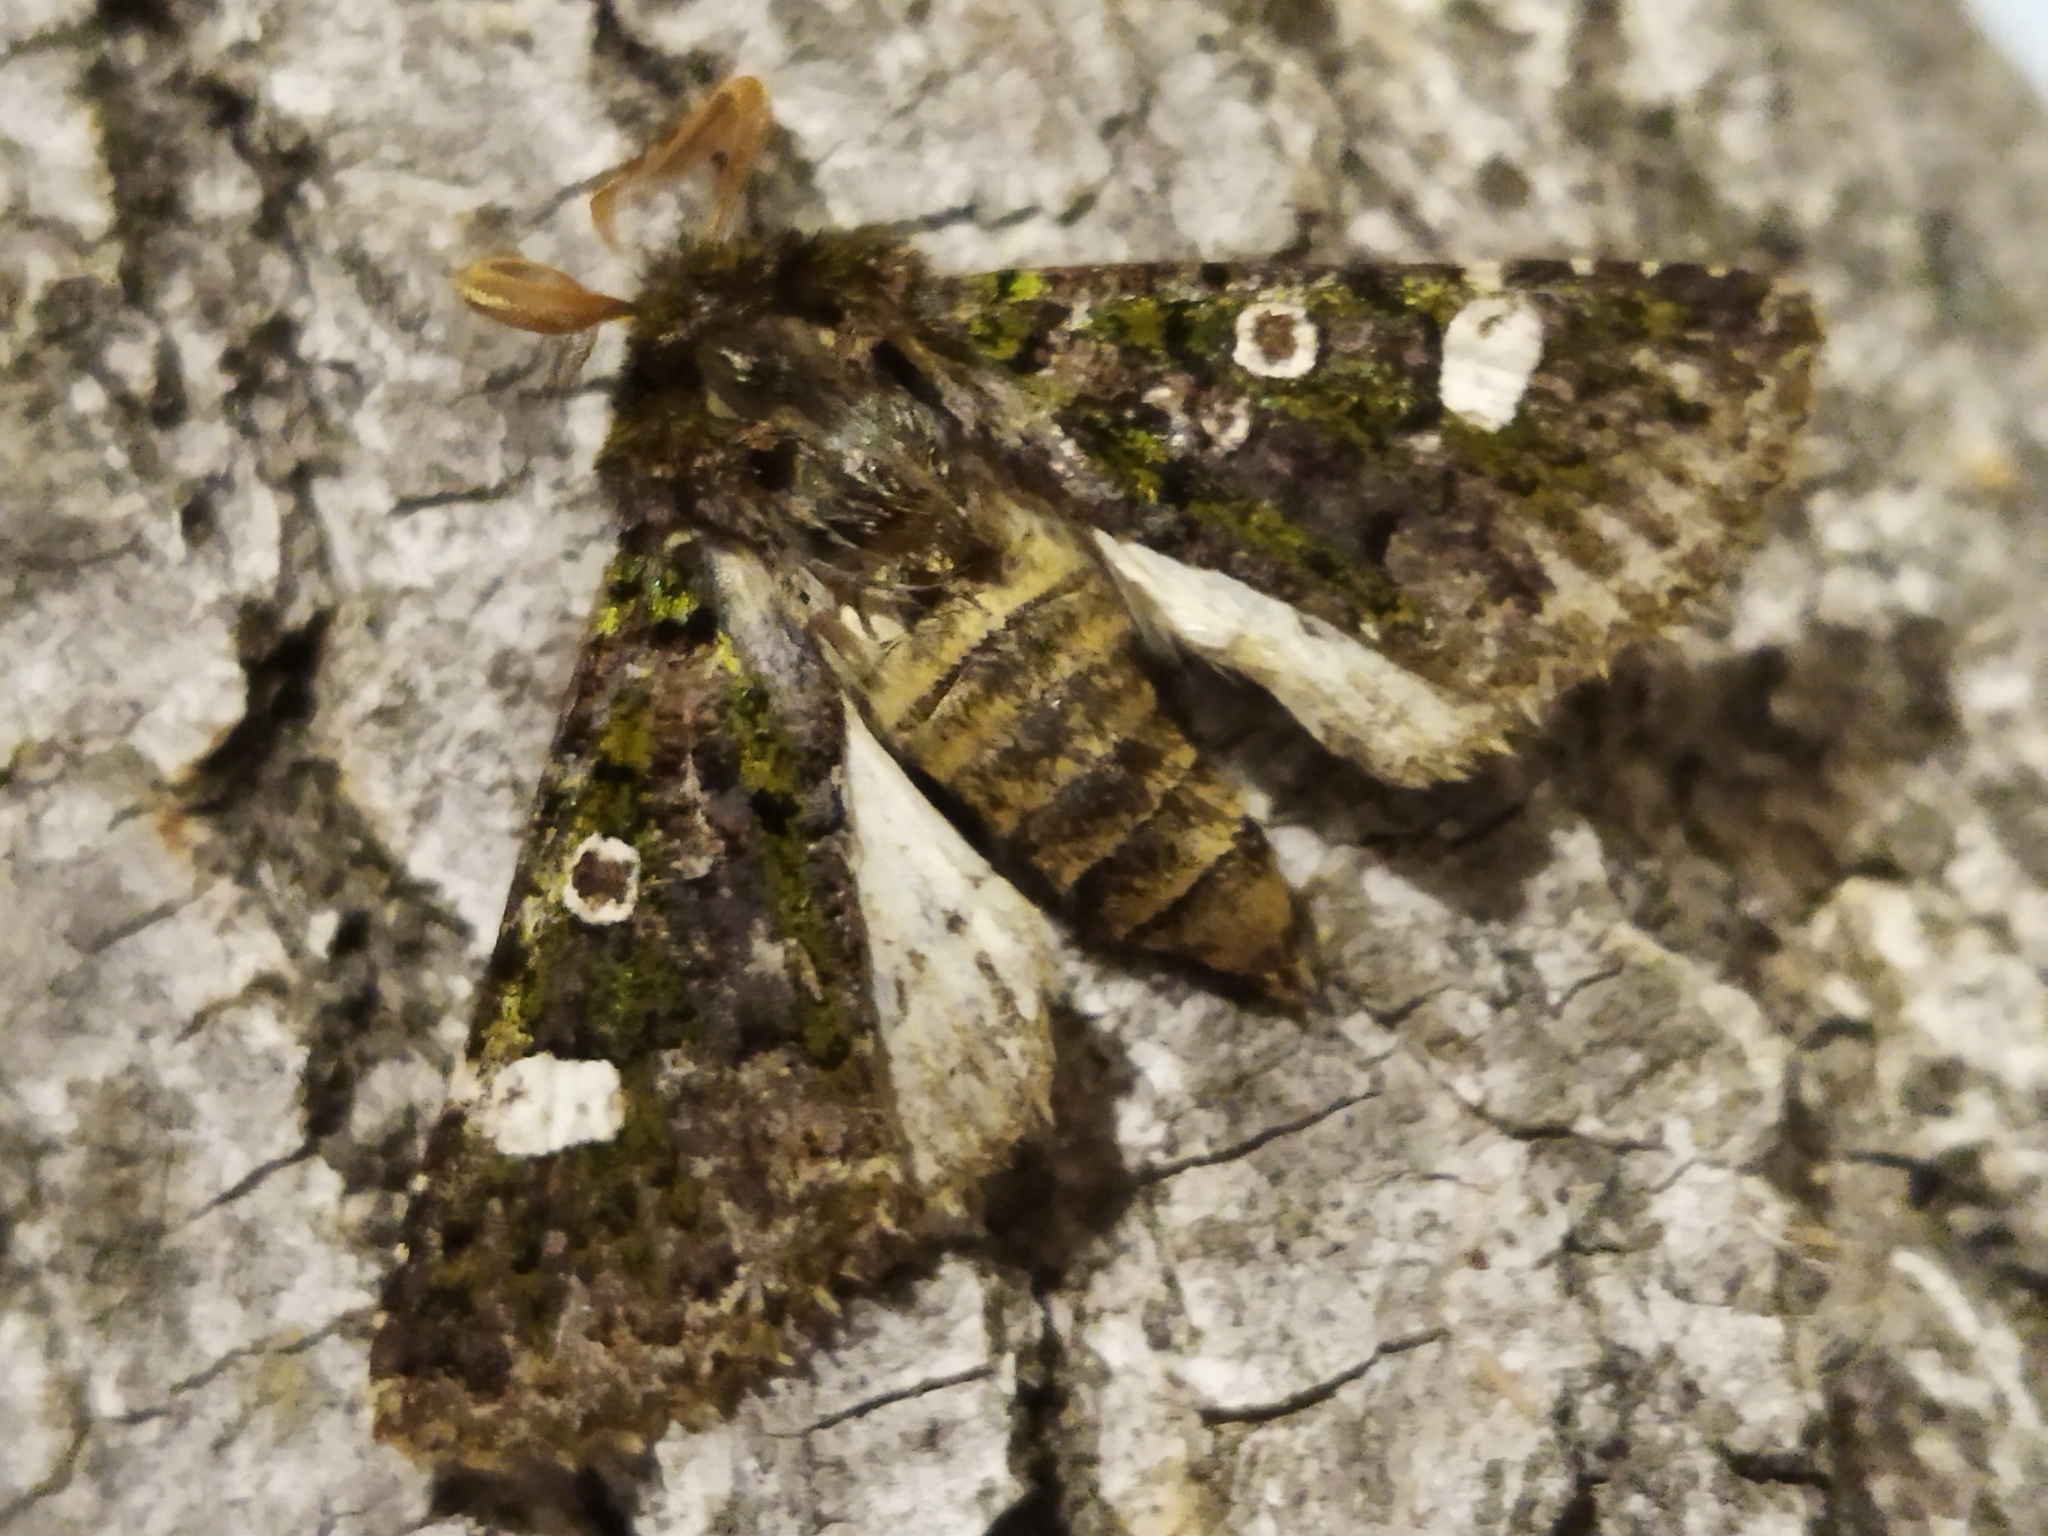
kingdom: Animalia
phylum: Arthropoda
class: Insecta
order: Lepidoptera
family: Noctuidae
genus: Valeria
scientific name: Valeria oleagina
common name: Green-brindled dot
